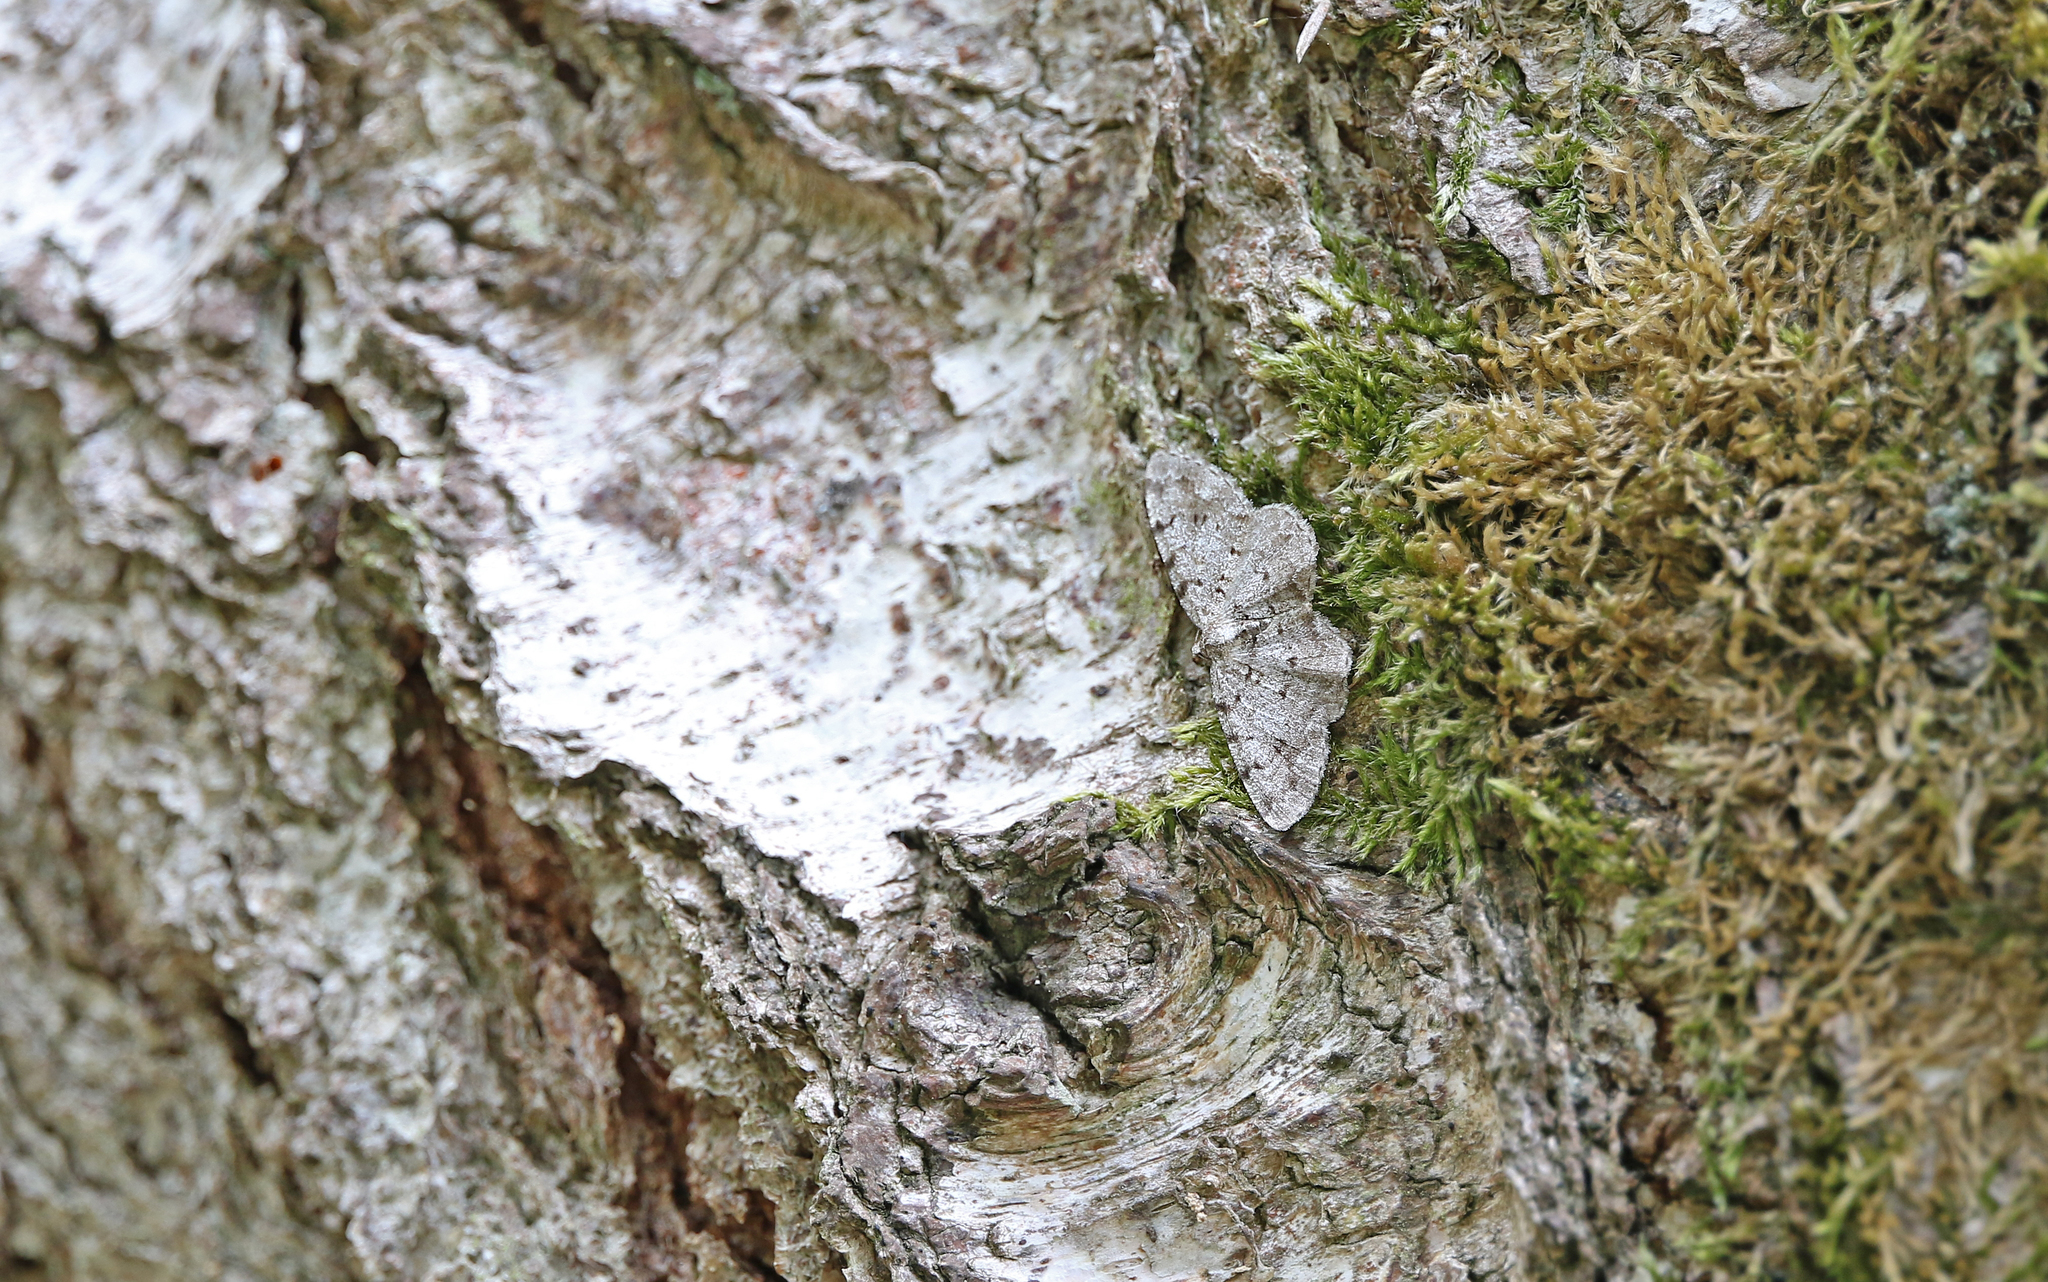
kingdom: Animalia
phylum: Arthropoda
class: Insecta
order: Lepidoptera
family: Geometridae
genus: Aethalura
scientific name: Aethalura punctulata
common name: Grey birch
